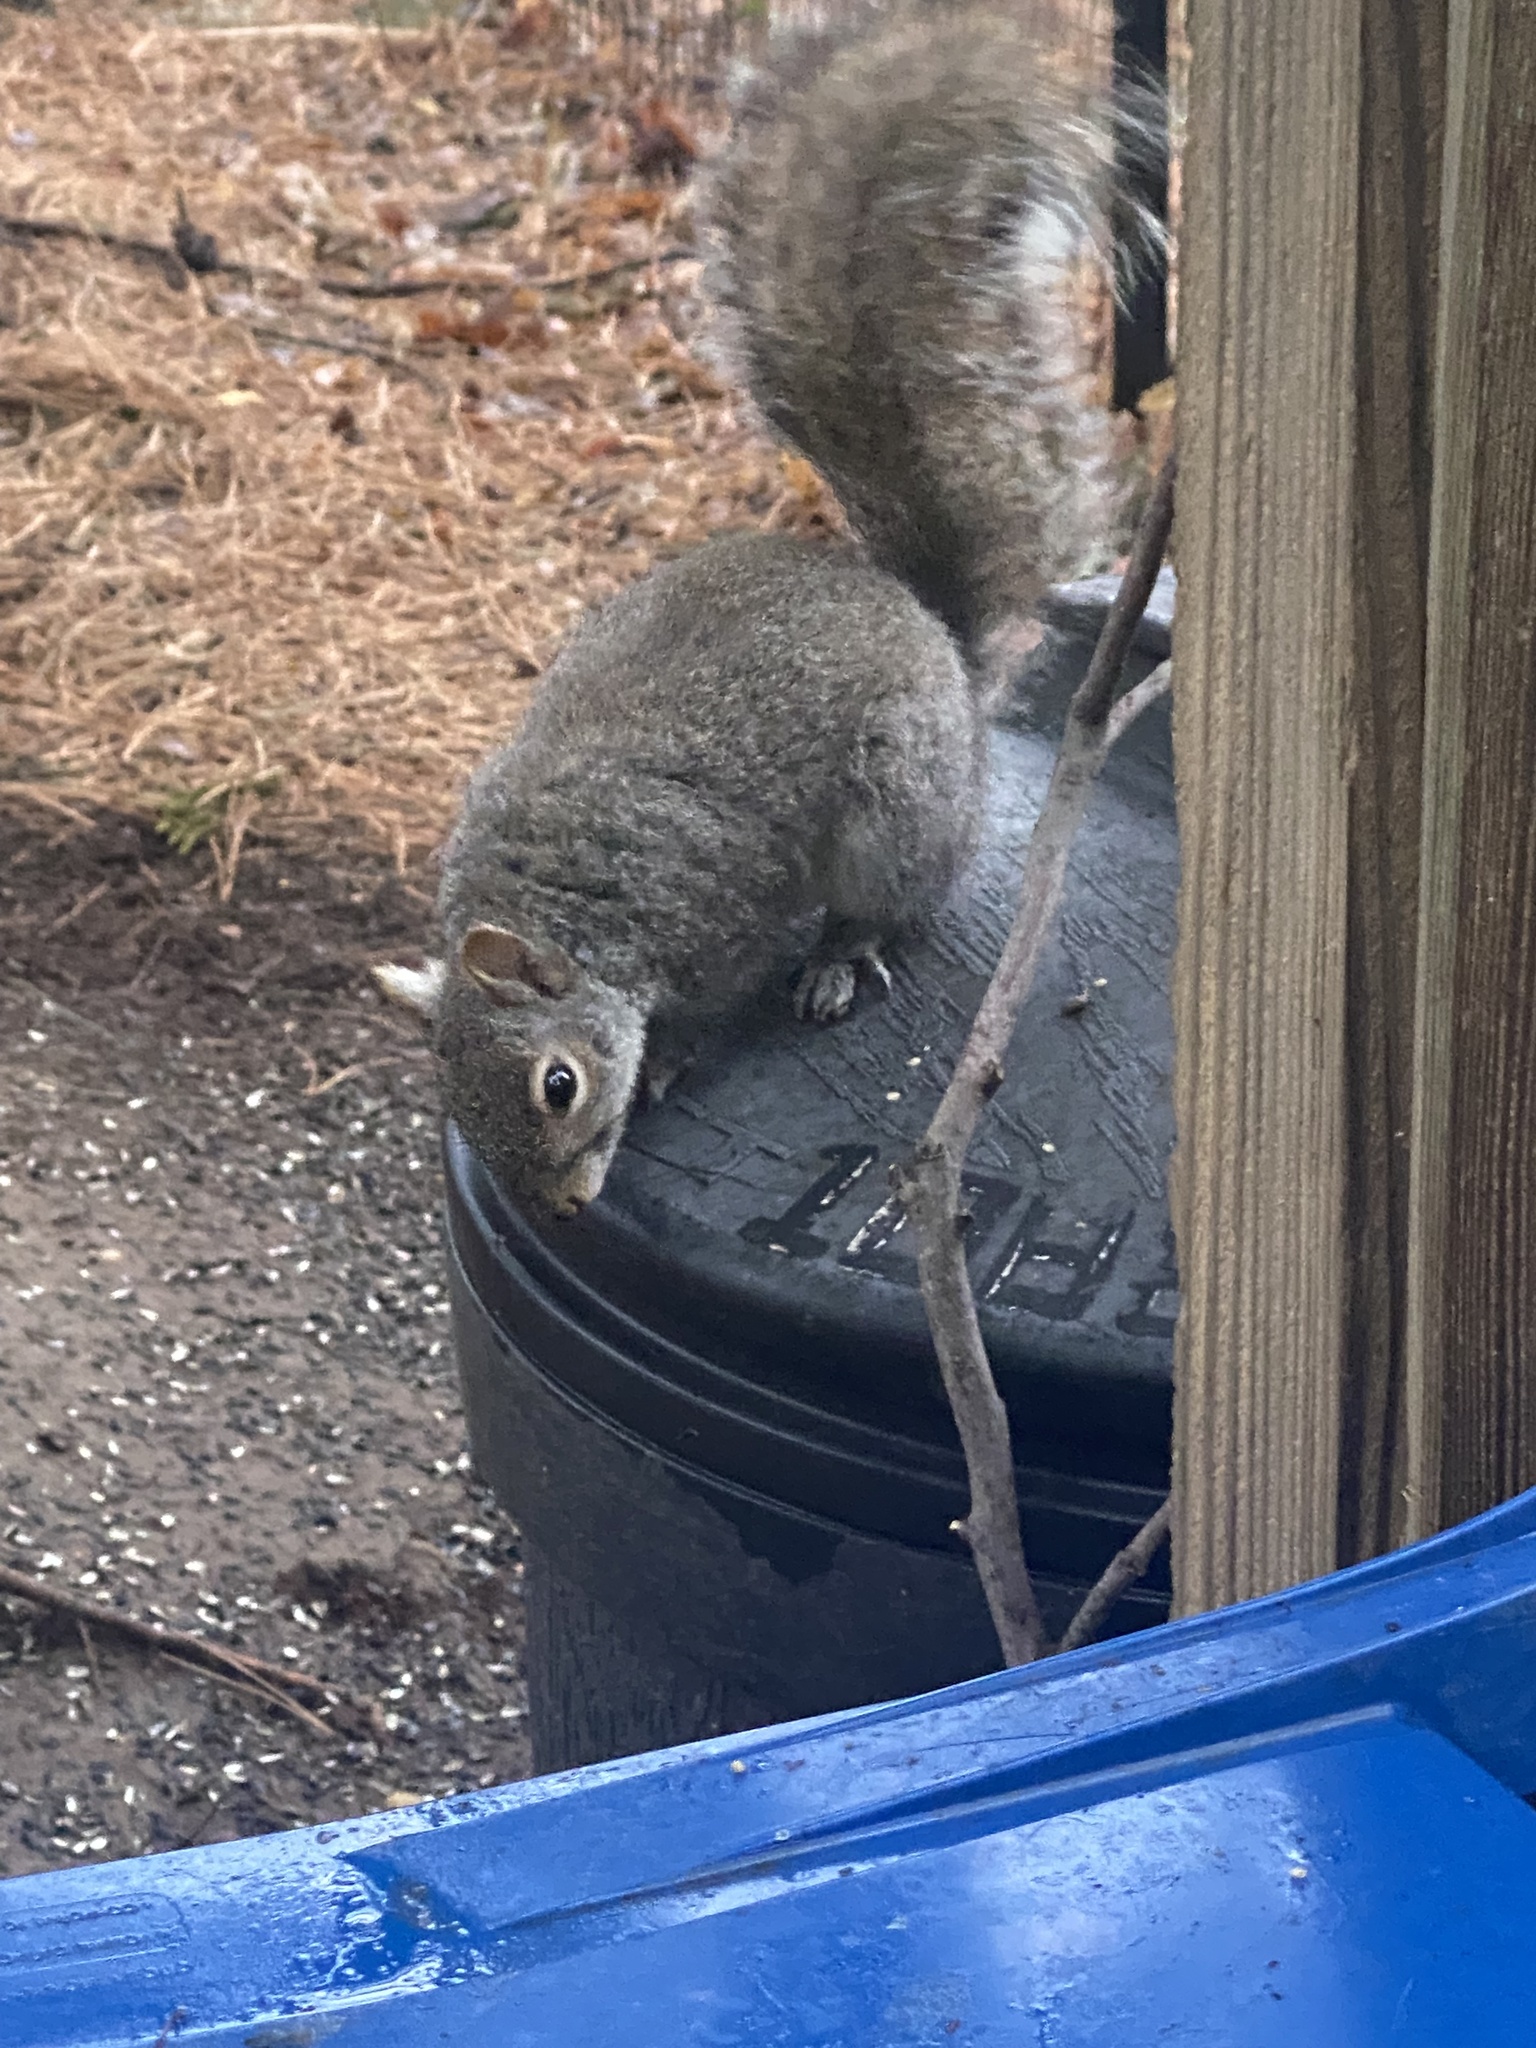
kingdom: Animalia
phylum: Chordata
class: Mammalia
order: Rodentia
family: Sciuridae
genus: Sciurus
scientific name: Sciurus carolinensis
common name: Eastern gray squirrel
